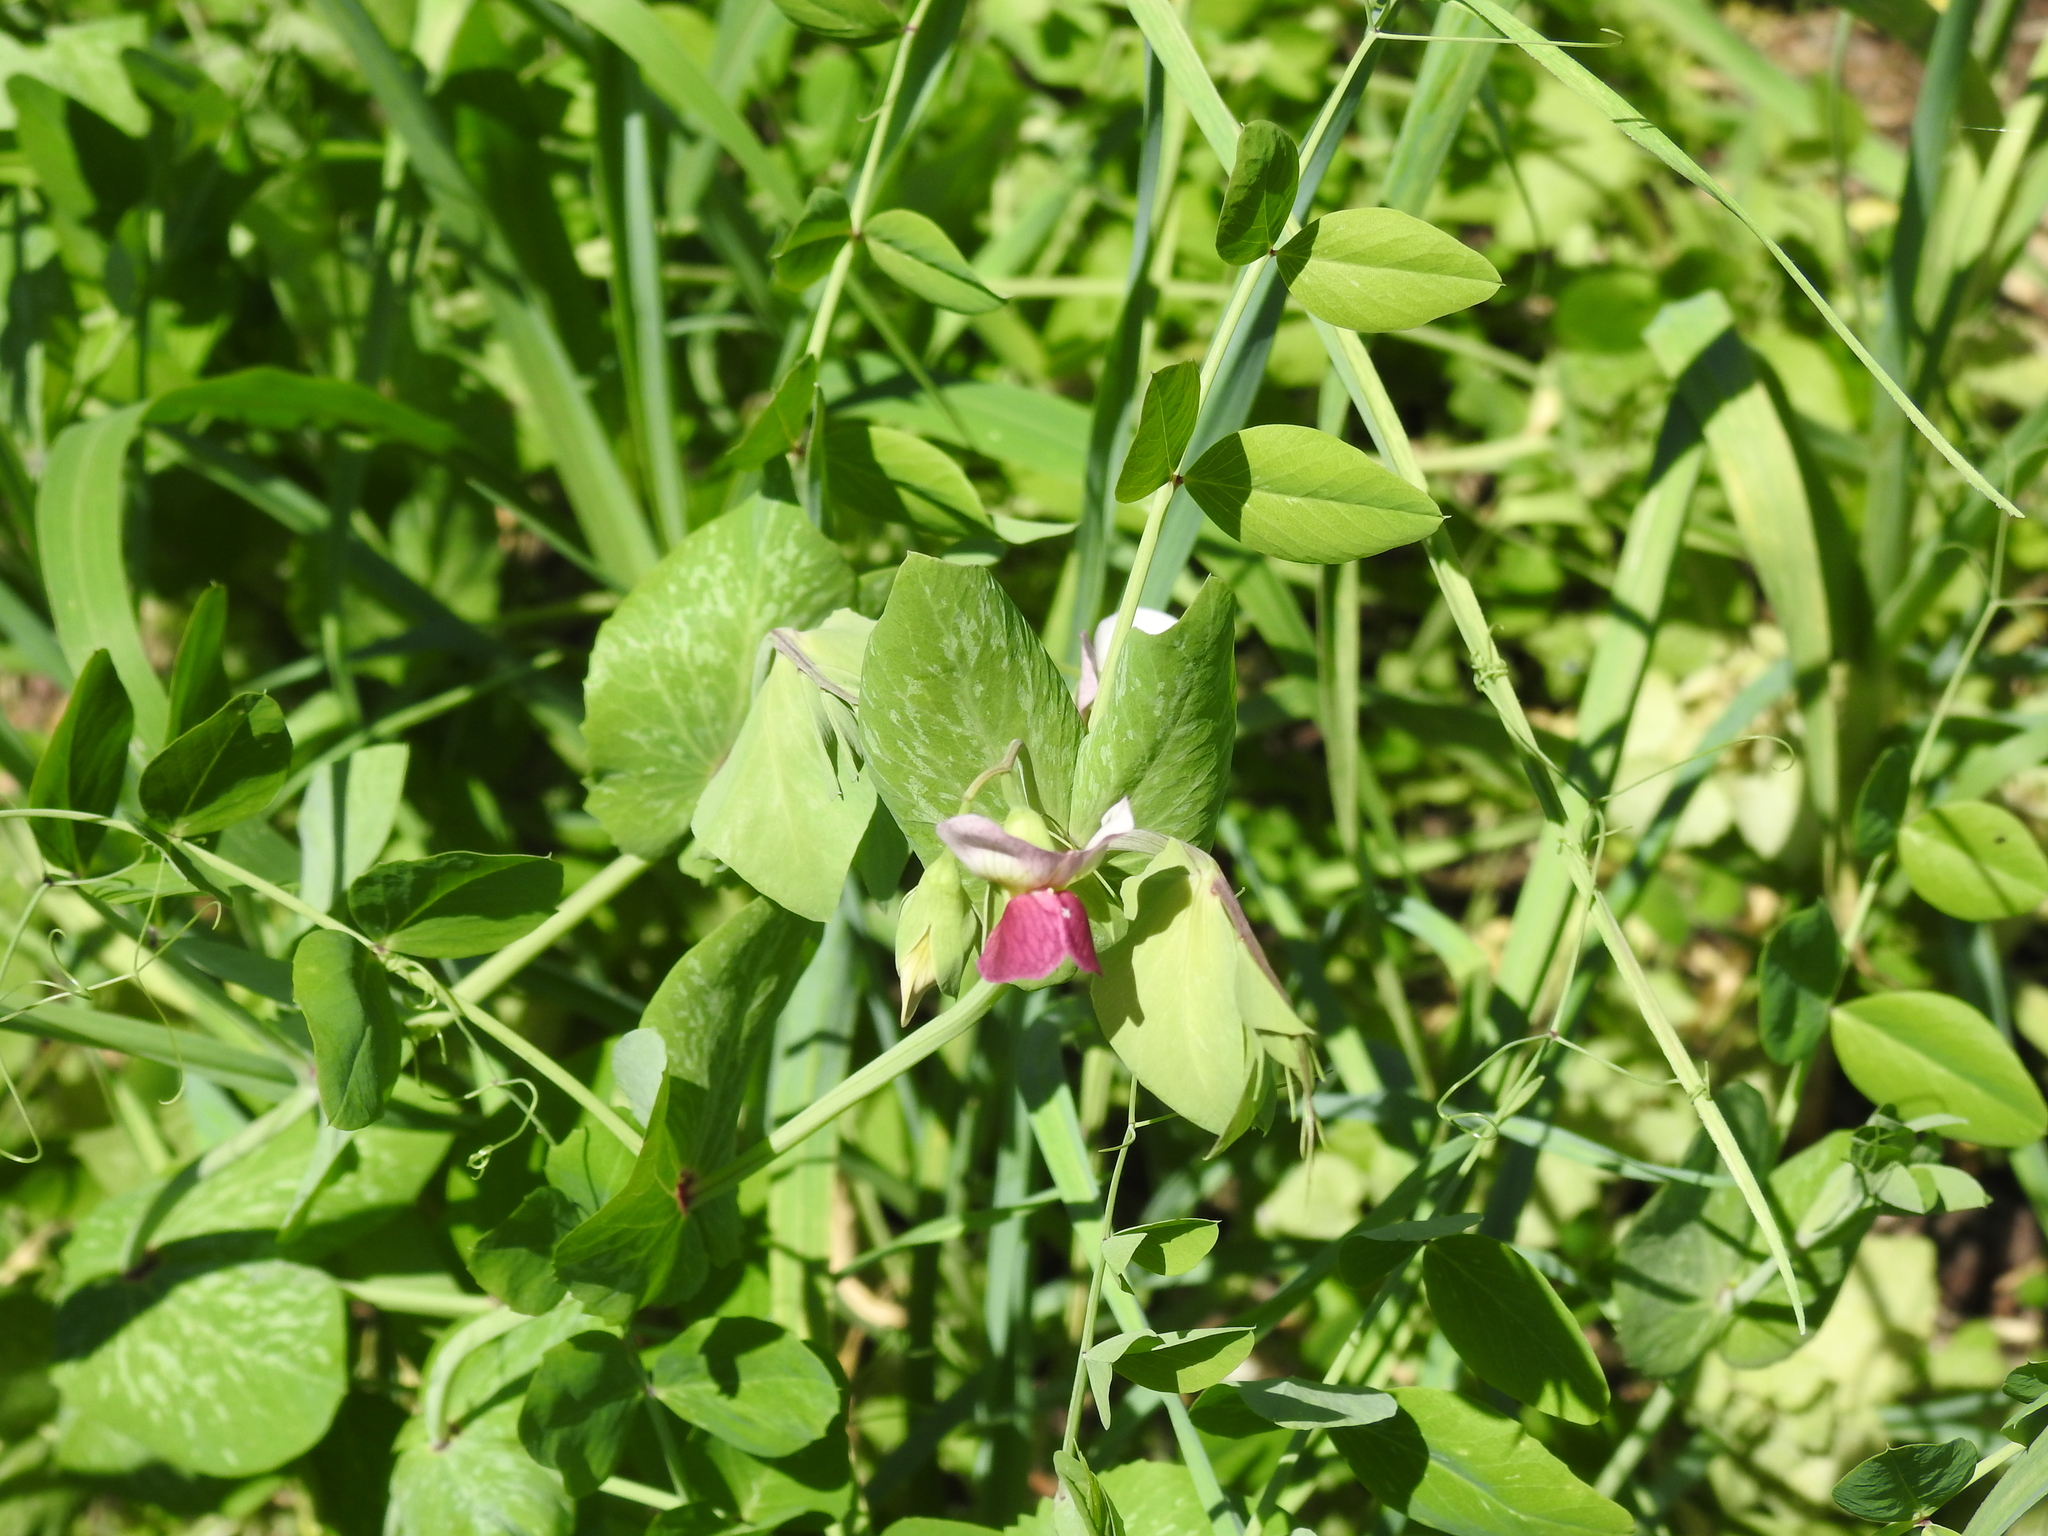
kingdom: Plantae
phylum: Tracheophyta
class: Magnoliopsida
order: Fabales
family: Fabaceae
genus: Lathyrus
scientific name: Lathyrus oleraceus
